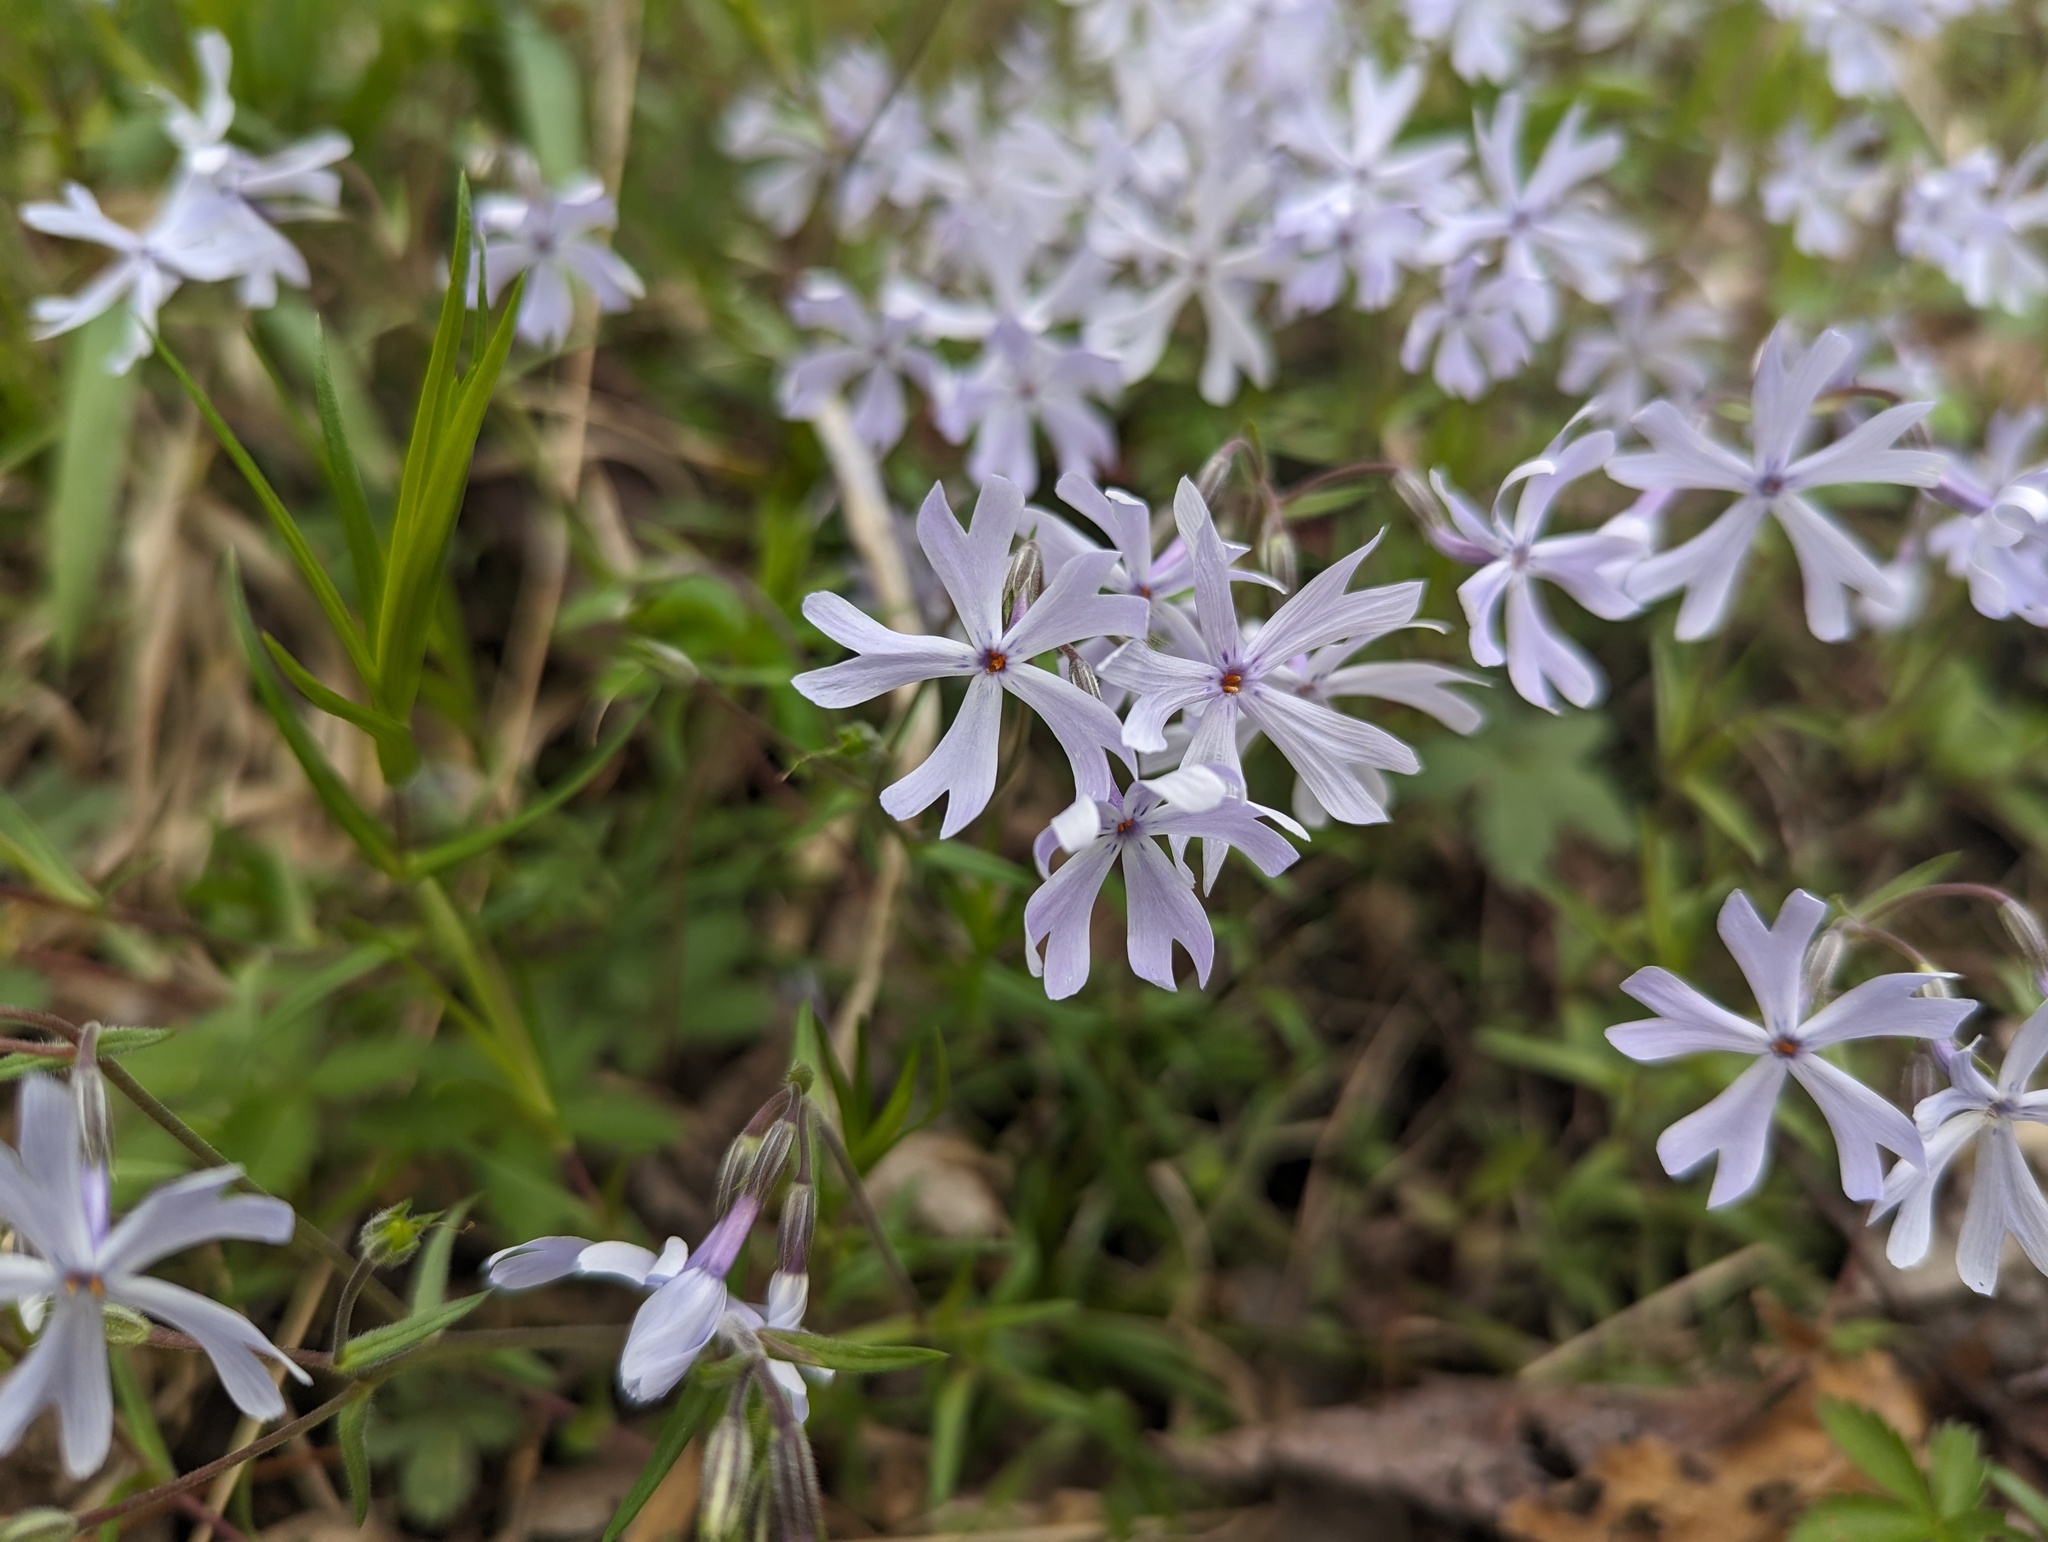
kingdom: Plantae
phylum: Tracheophyta
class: Magnoliopsida
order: Ericales
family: Polemoniaceae
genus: Phlox
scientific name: Phlox bifida
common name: Sand phlox
